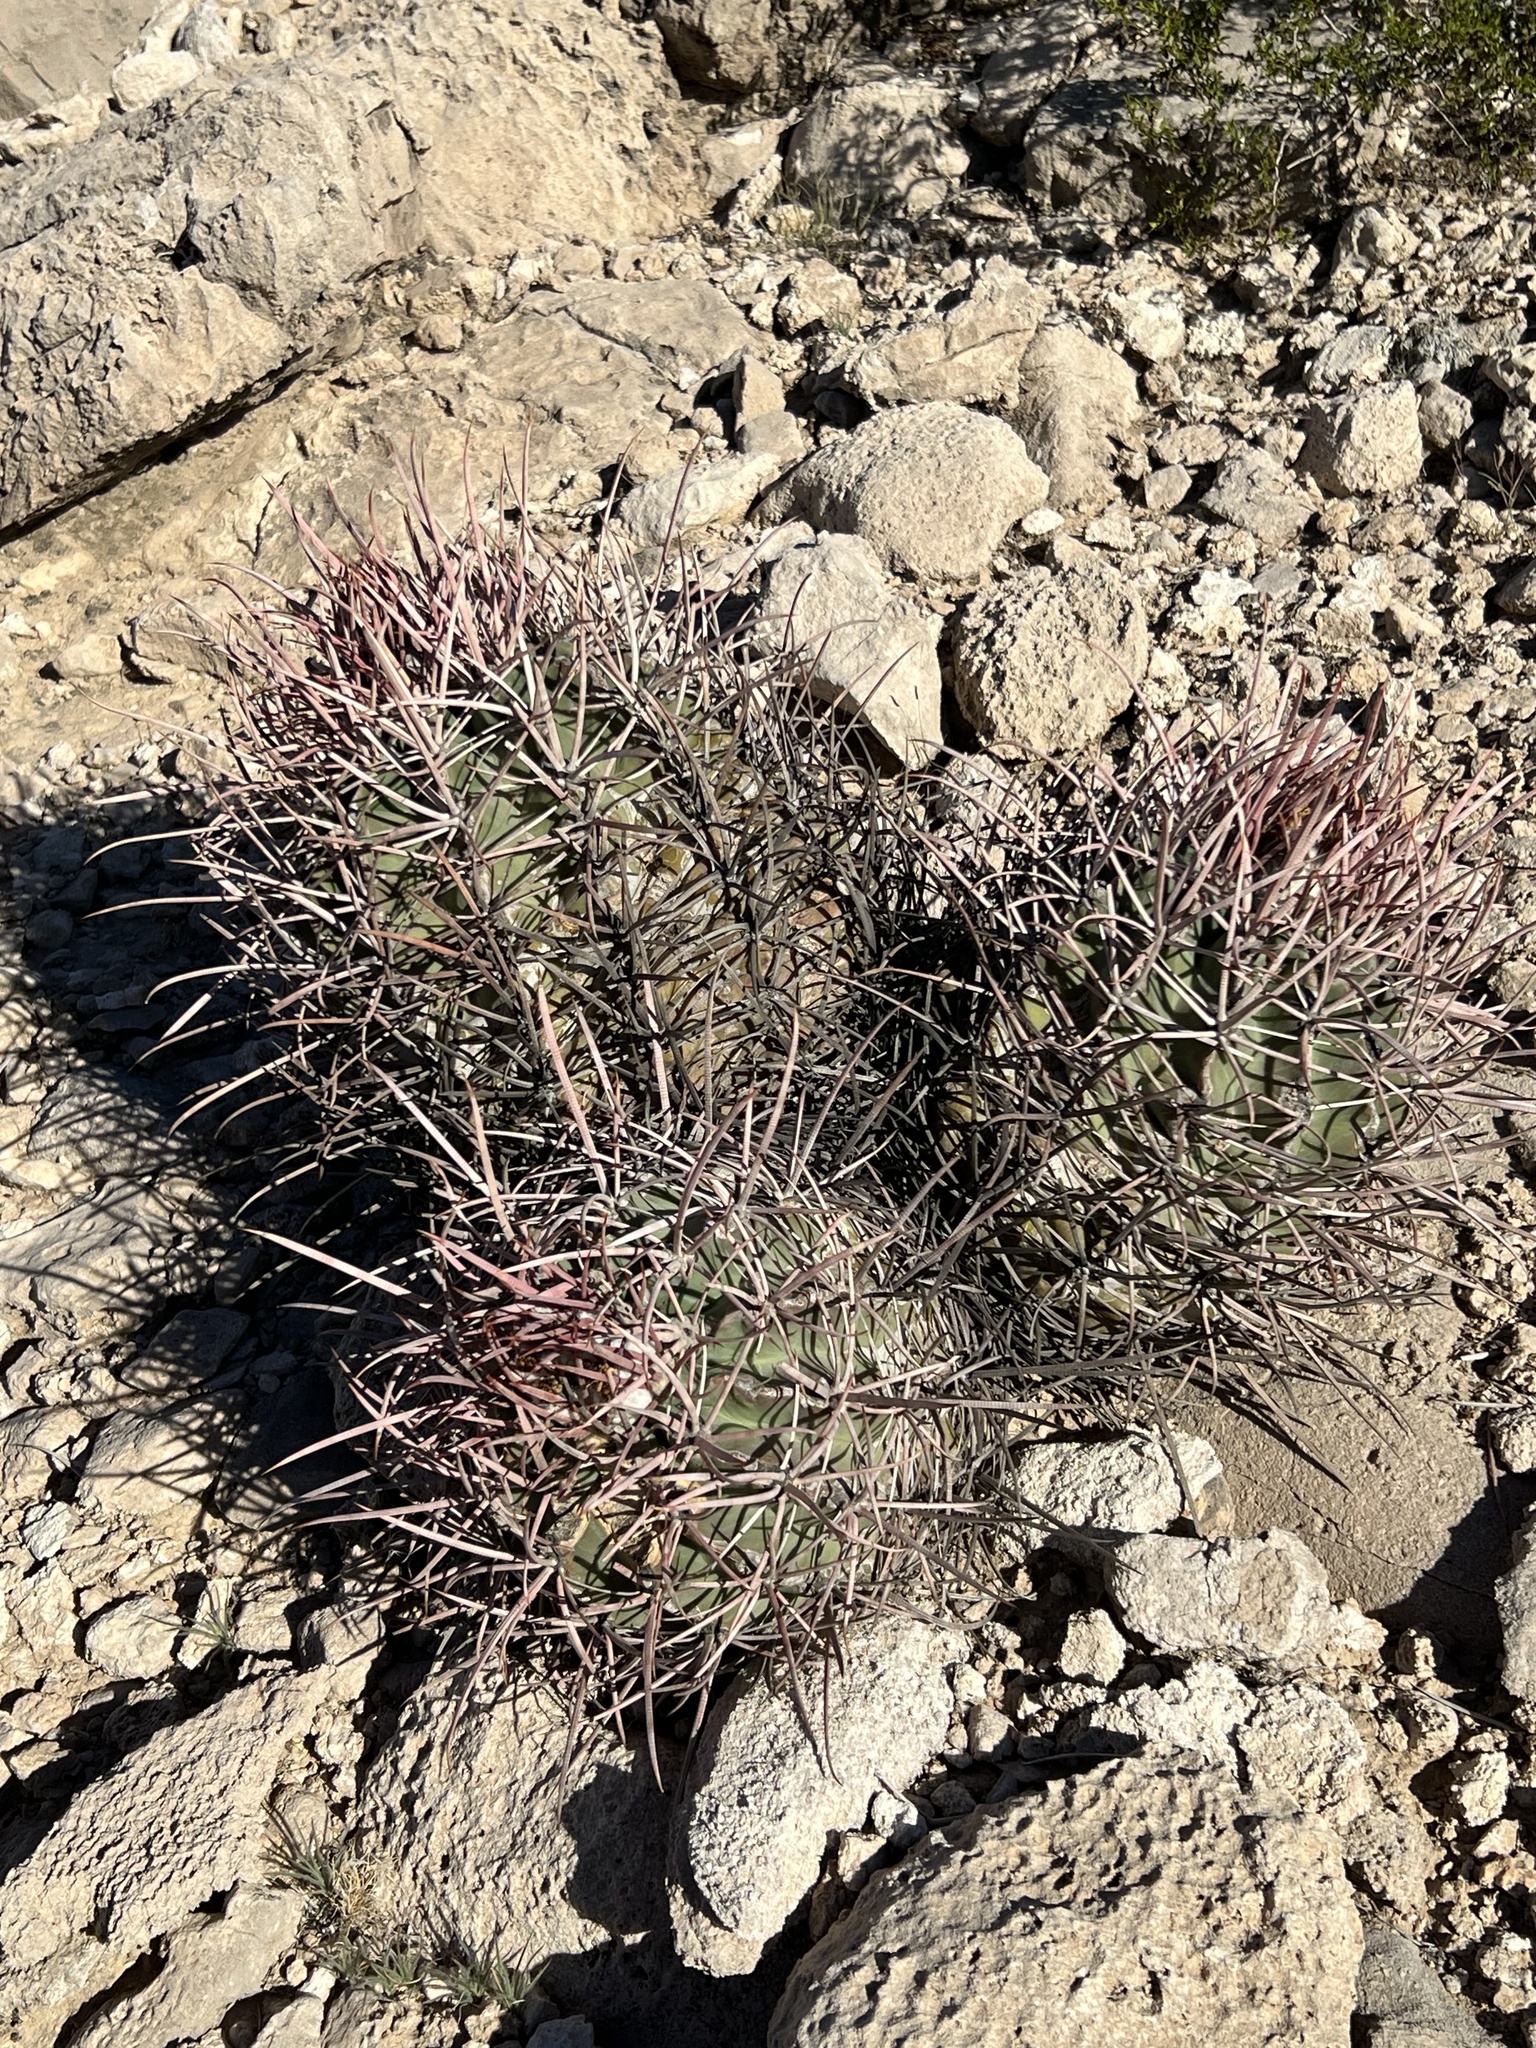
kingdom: Plantae
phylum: Tracheophyta
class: Magnoliopsida
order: Caryophyllales
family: Cactaceae
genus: Echinocactus
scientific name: Echinocactus polycephalus
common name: Cottontop cactus
